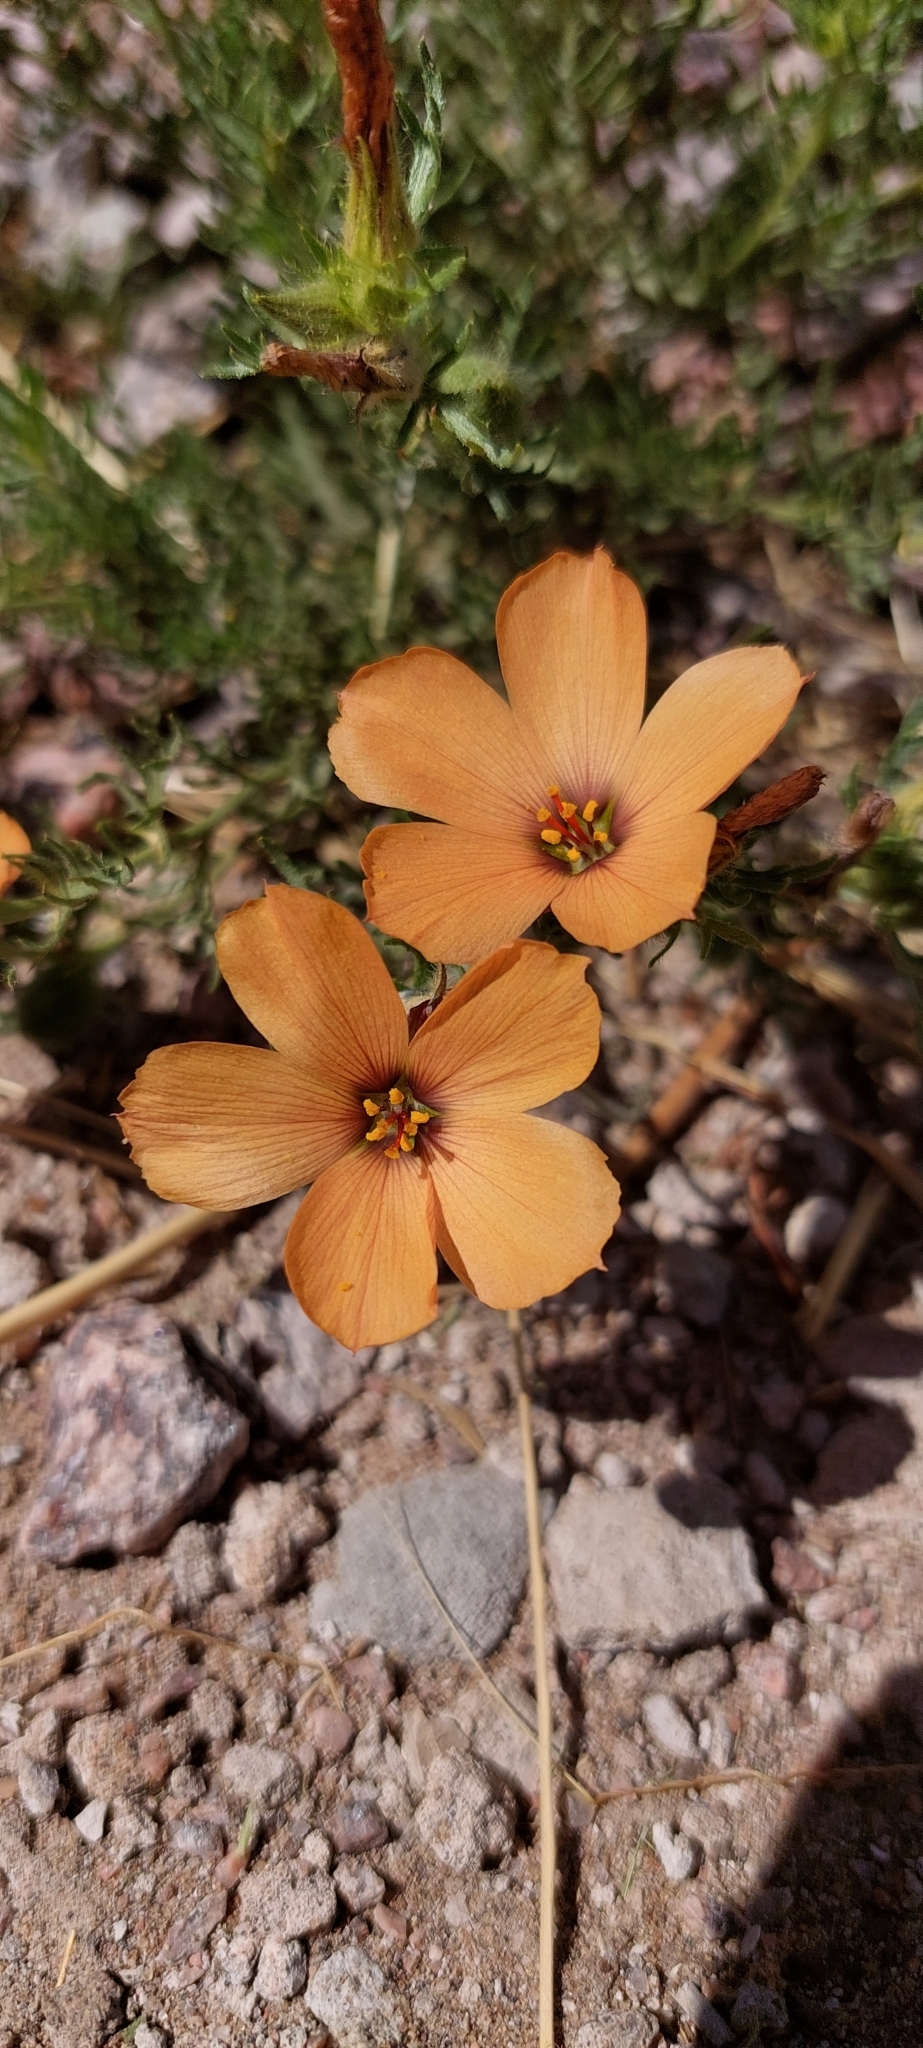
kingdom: Plantae
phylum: Tracheophyta
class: Magnoliopsida
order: Malpighiales
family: Turneraceae
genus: Turnera
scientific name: Turnera sidoides
